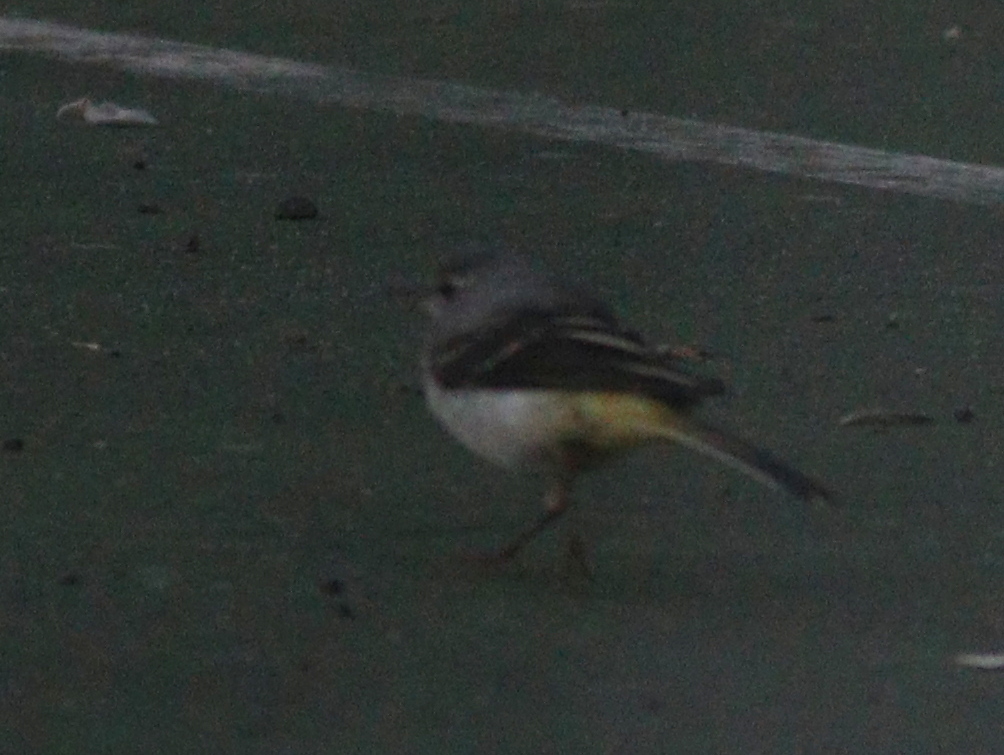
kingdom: Animalia
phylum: Chordata
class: Aves
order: Passeriformes
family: Motacillidae
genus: Motacilla
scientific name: Motacilla cinerea
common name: Grey wagtail
